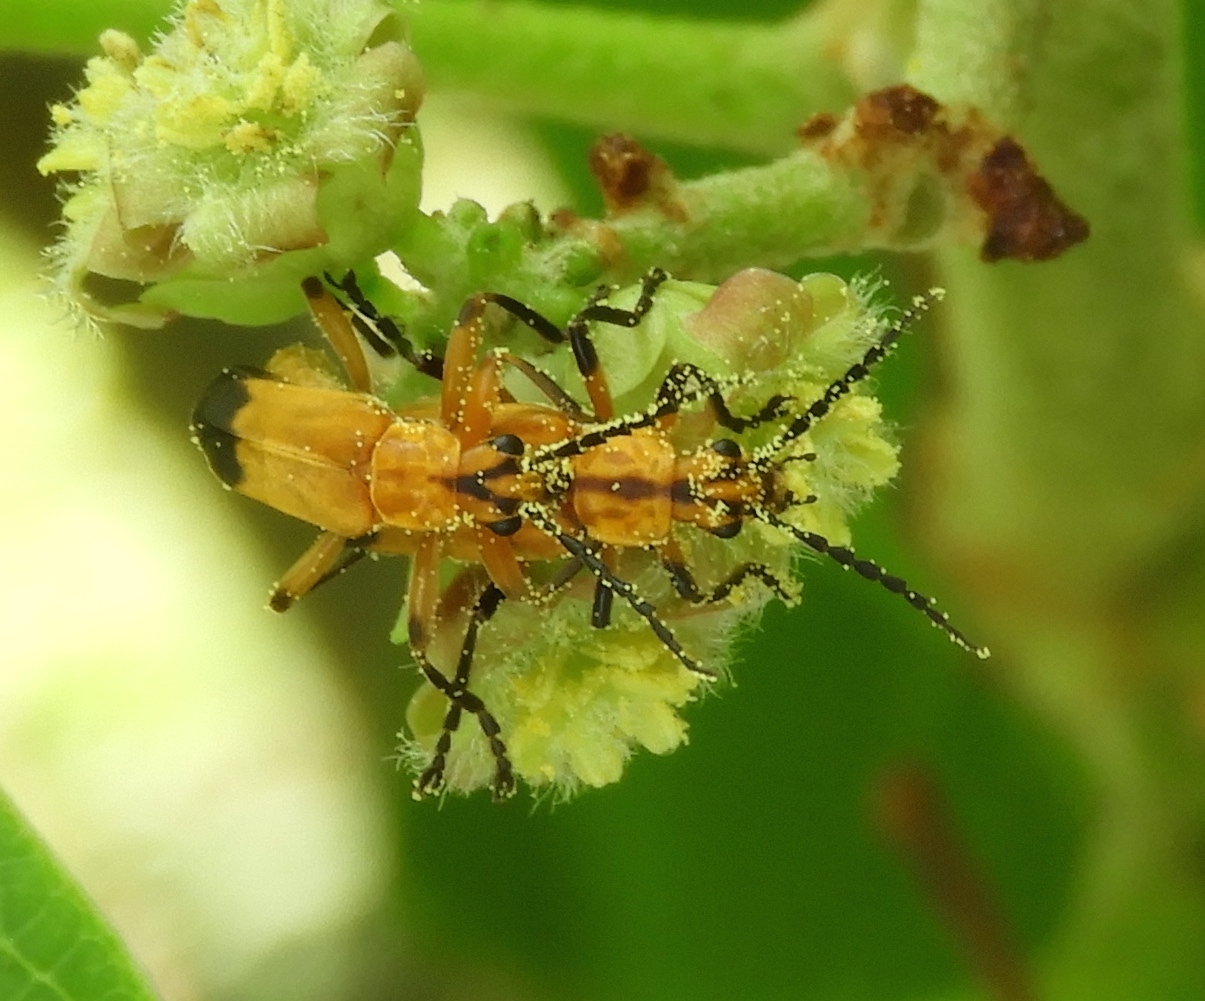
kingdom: Animalia
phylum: Arthropoda
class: Insecta
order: Coleoptera
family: Cantharidae
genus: Daiphron
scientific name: Daiphron proteum
